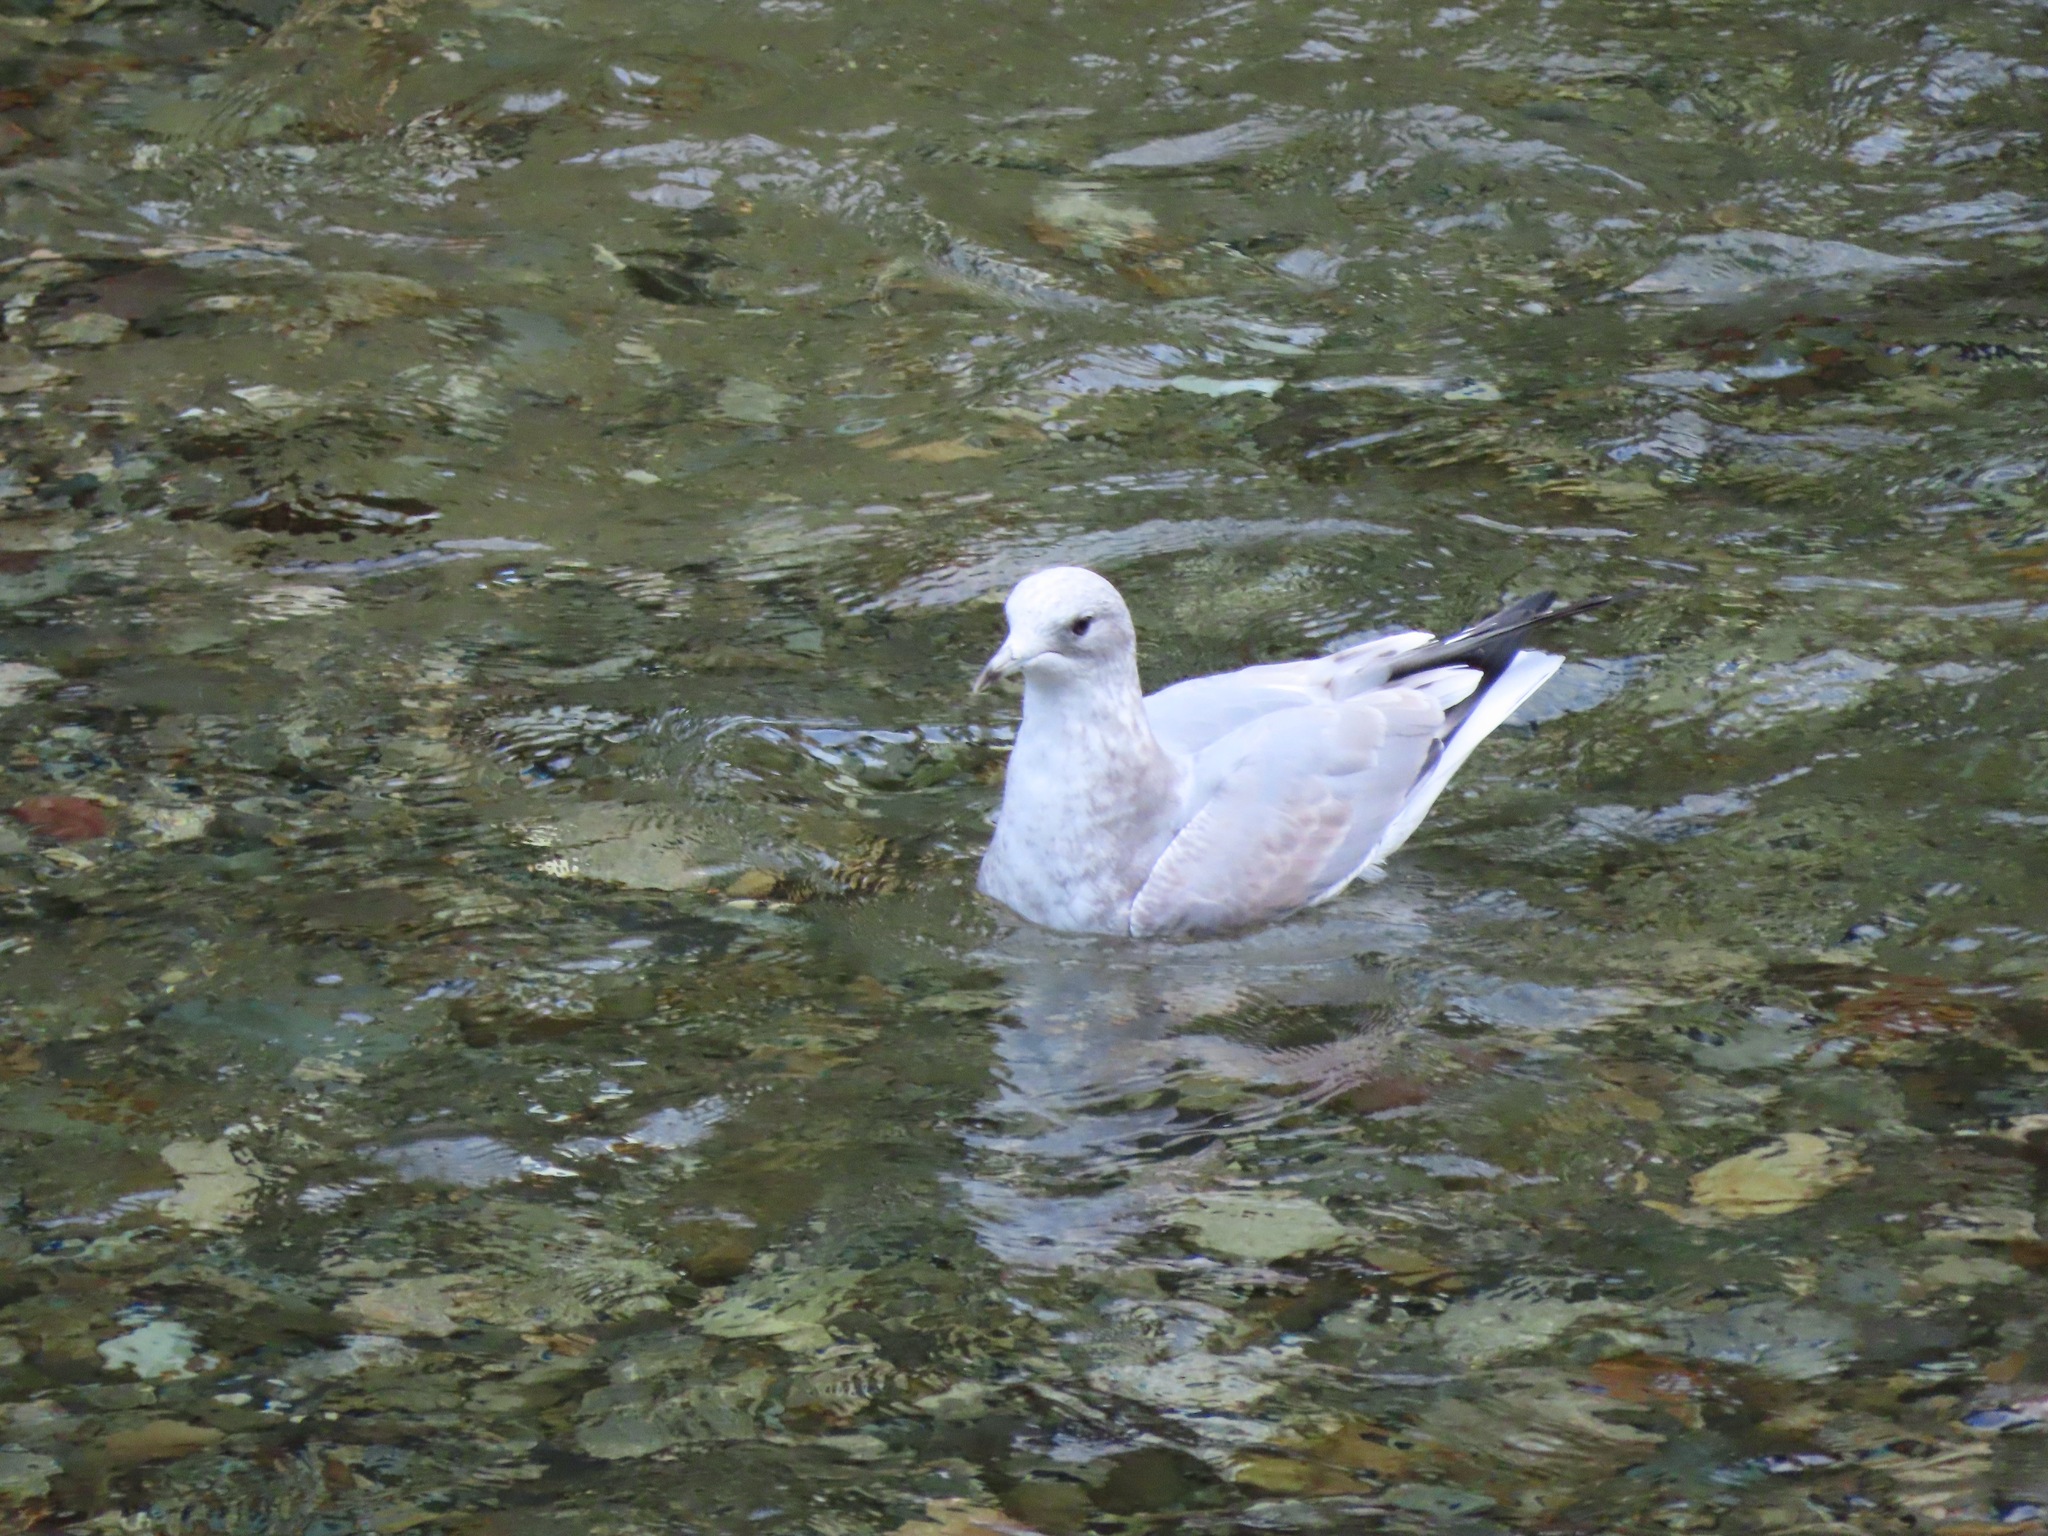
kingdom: Animalia
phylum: Chordata
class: Aves
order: Charadriiformes
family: Laridae
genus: Larus
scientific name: Larus brachyrhynchus
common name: Short-billed gull
